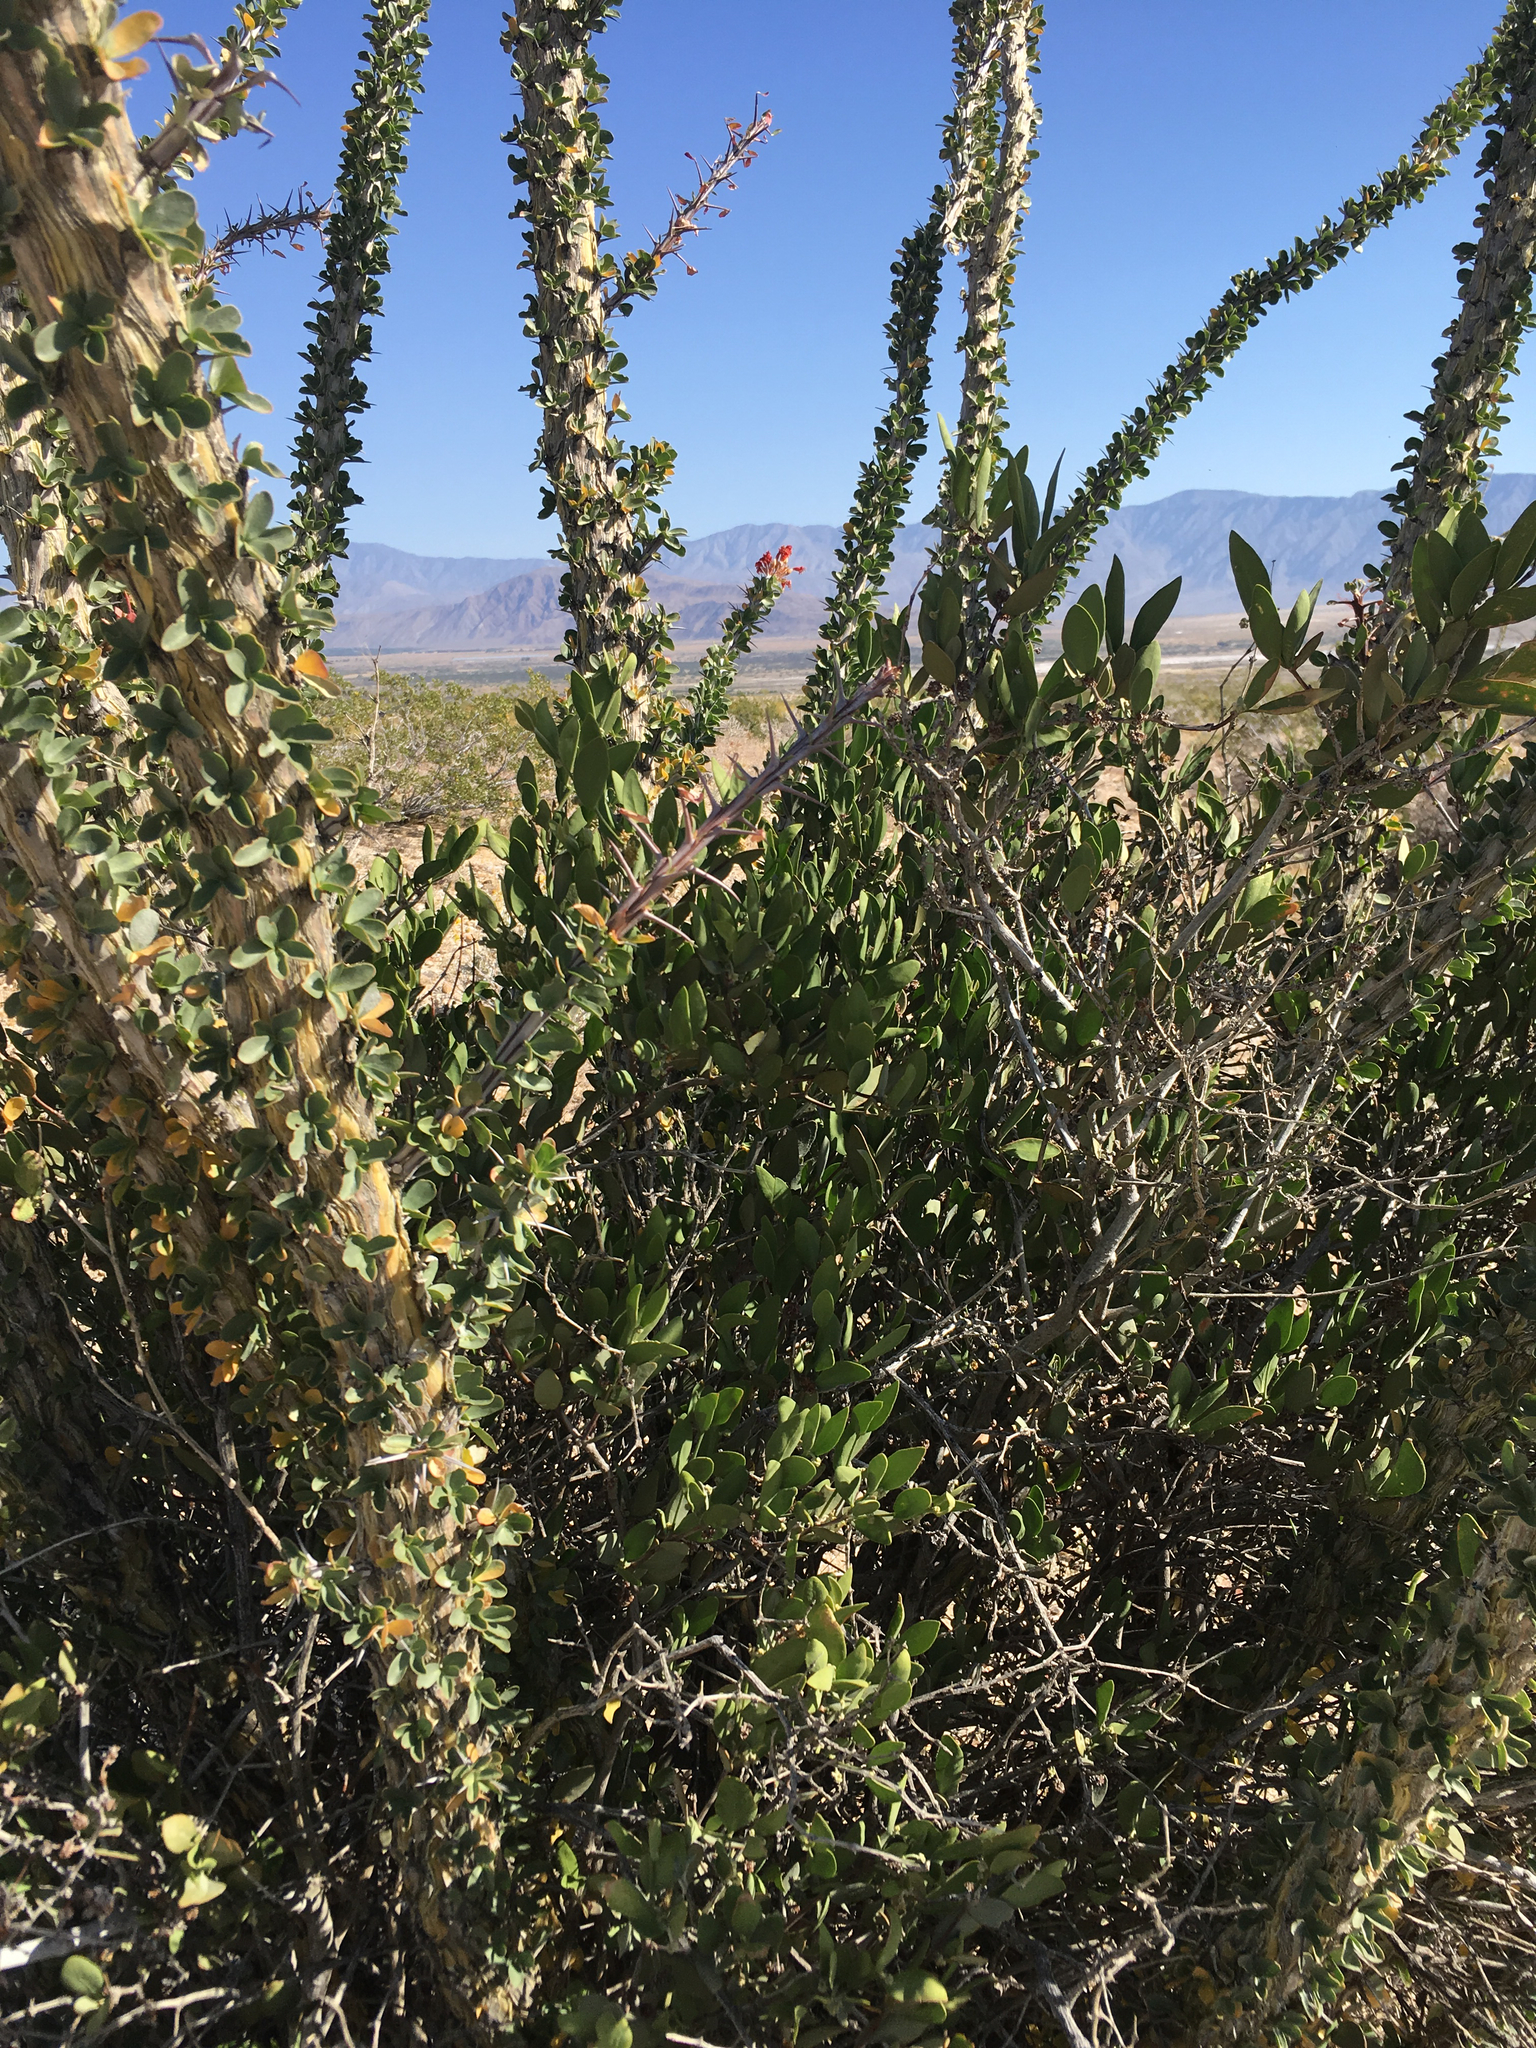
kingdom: Plantae
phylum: Tracheophyta
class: Magnoliopsida
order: Caryophyllales
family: Simmondsiaceae
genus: Simmondsia
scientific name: Simmondsia chinensis
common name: Jojoba
